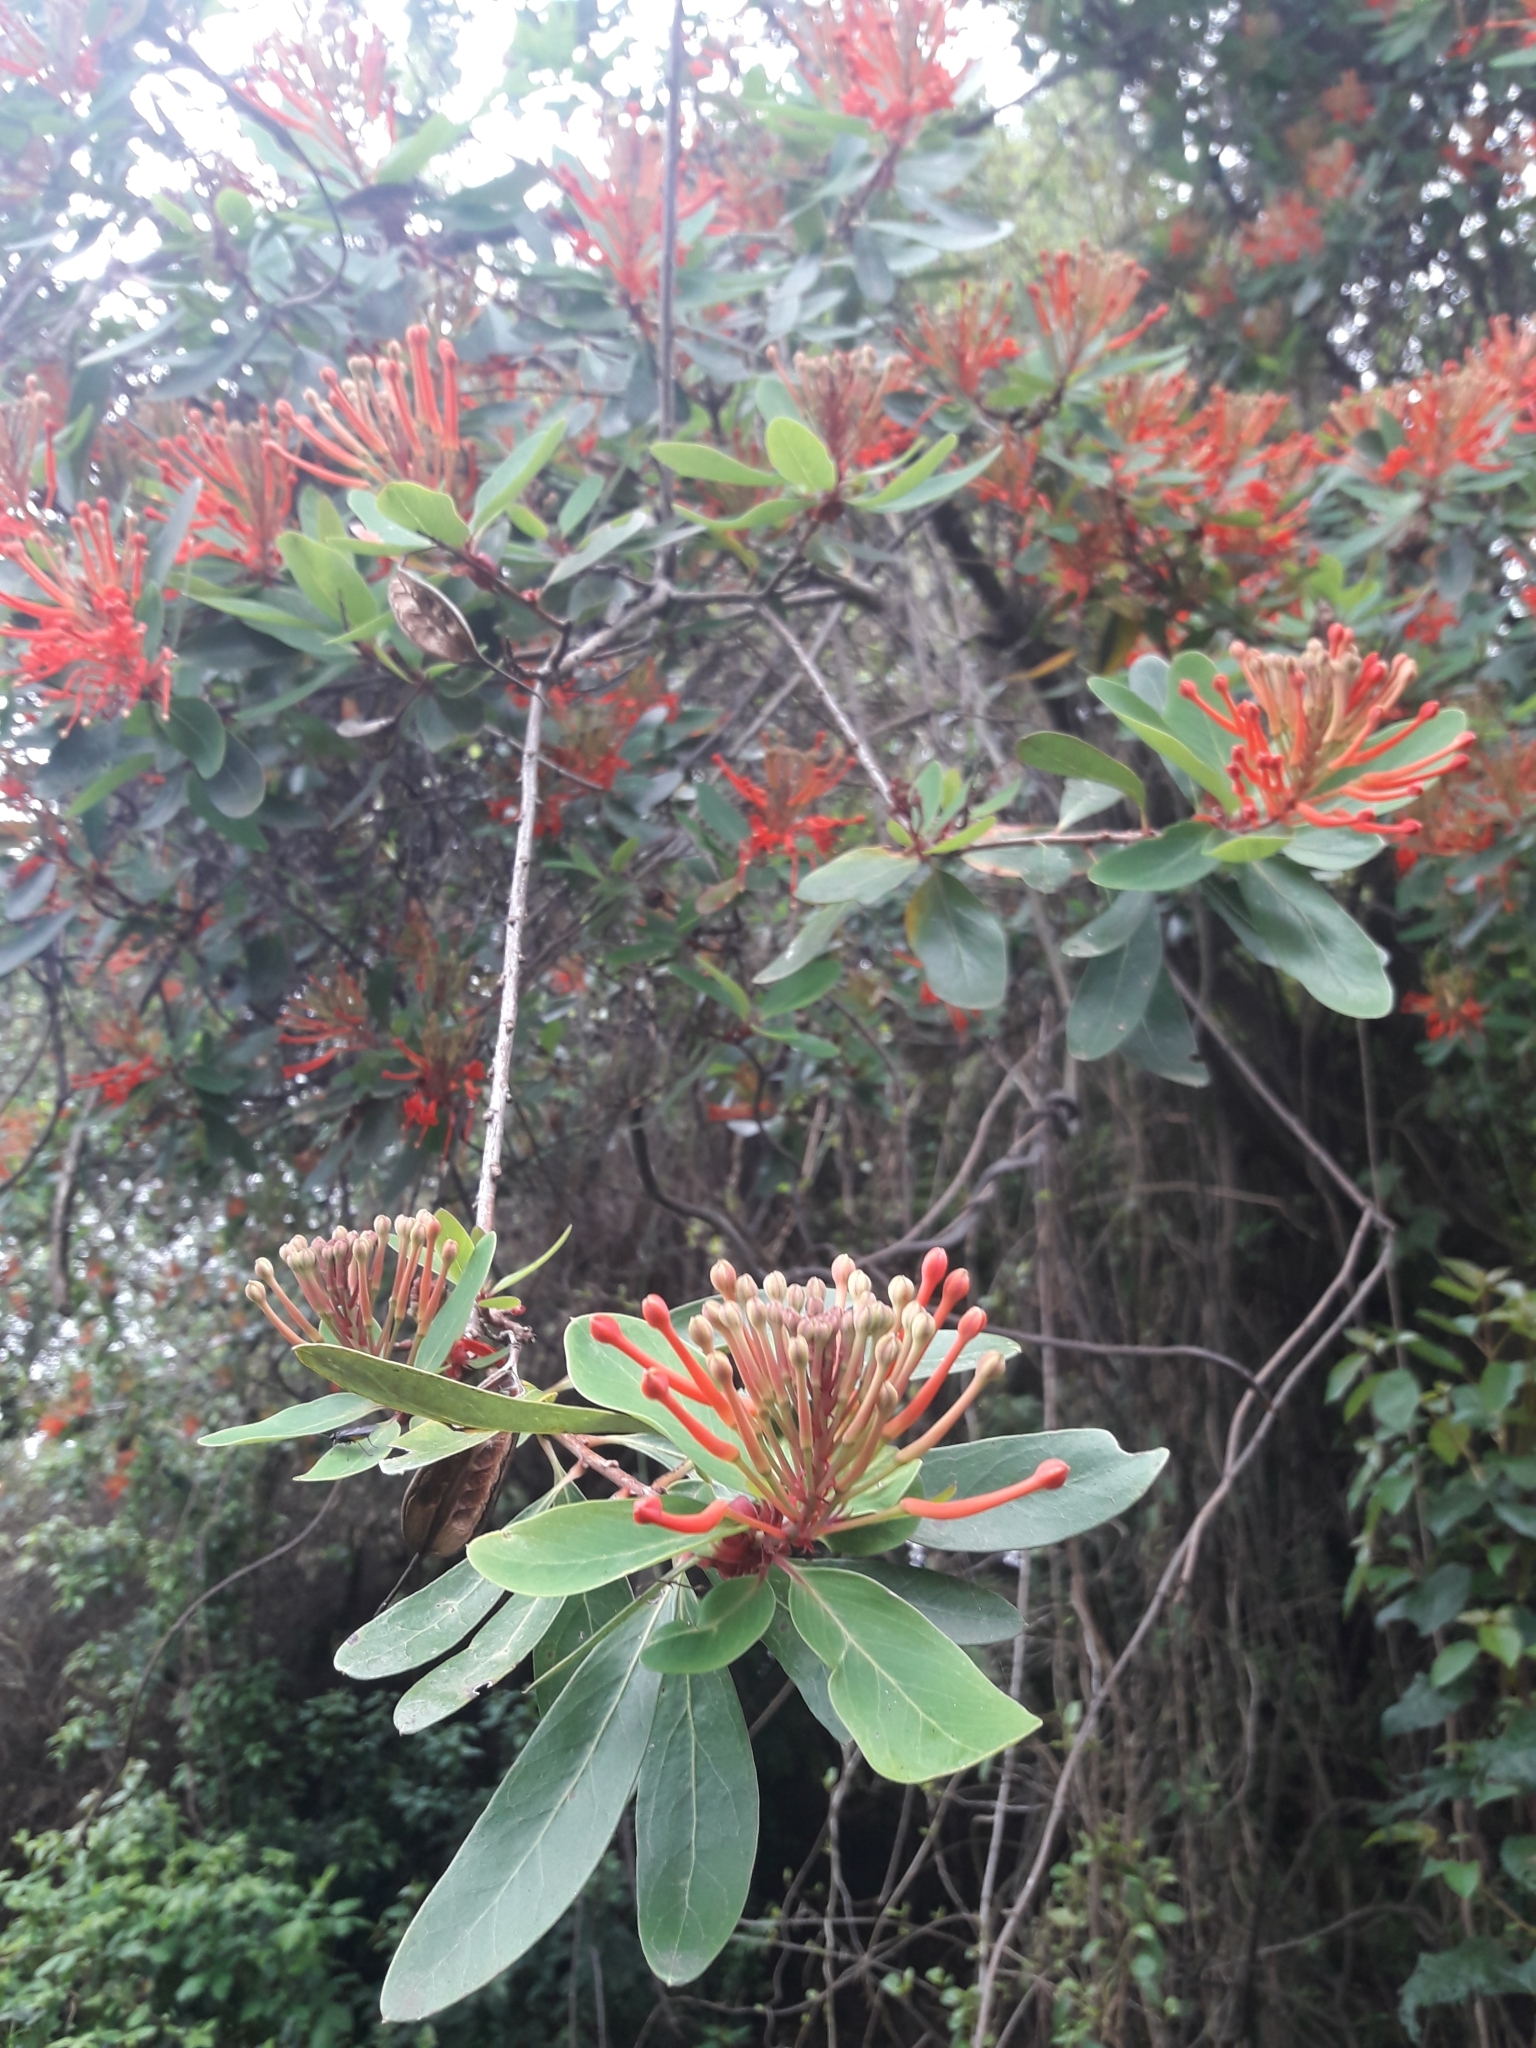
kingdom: Plantae
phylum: Tracheophyta
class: Magnoliopsida
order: Proteales
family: Proteaceae
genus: Embothrium
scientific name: Embothrium coccineum
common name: Chilean firebush
